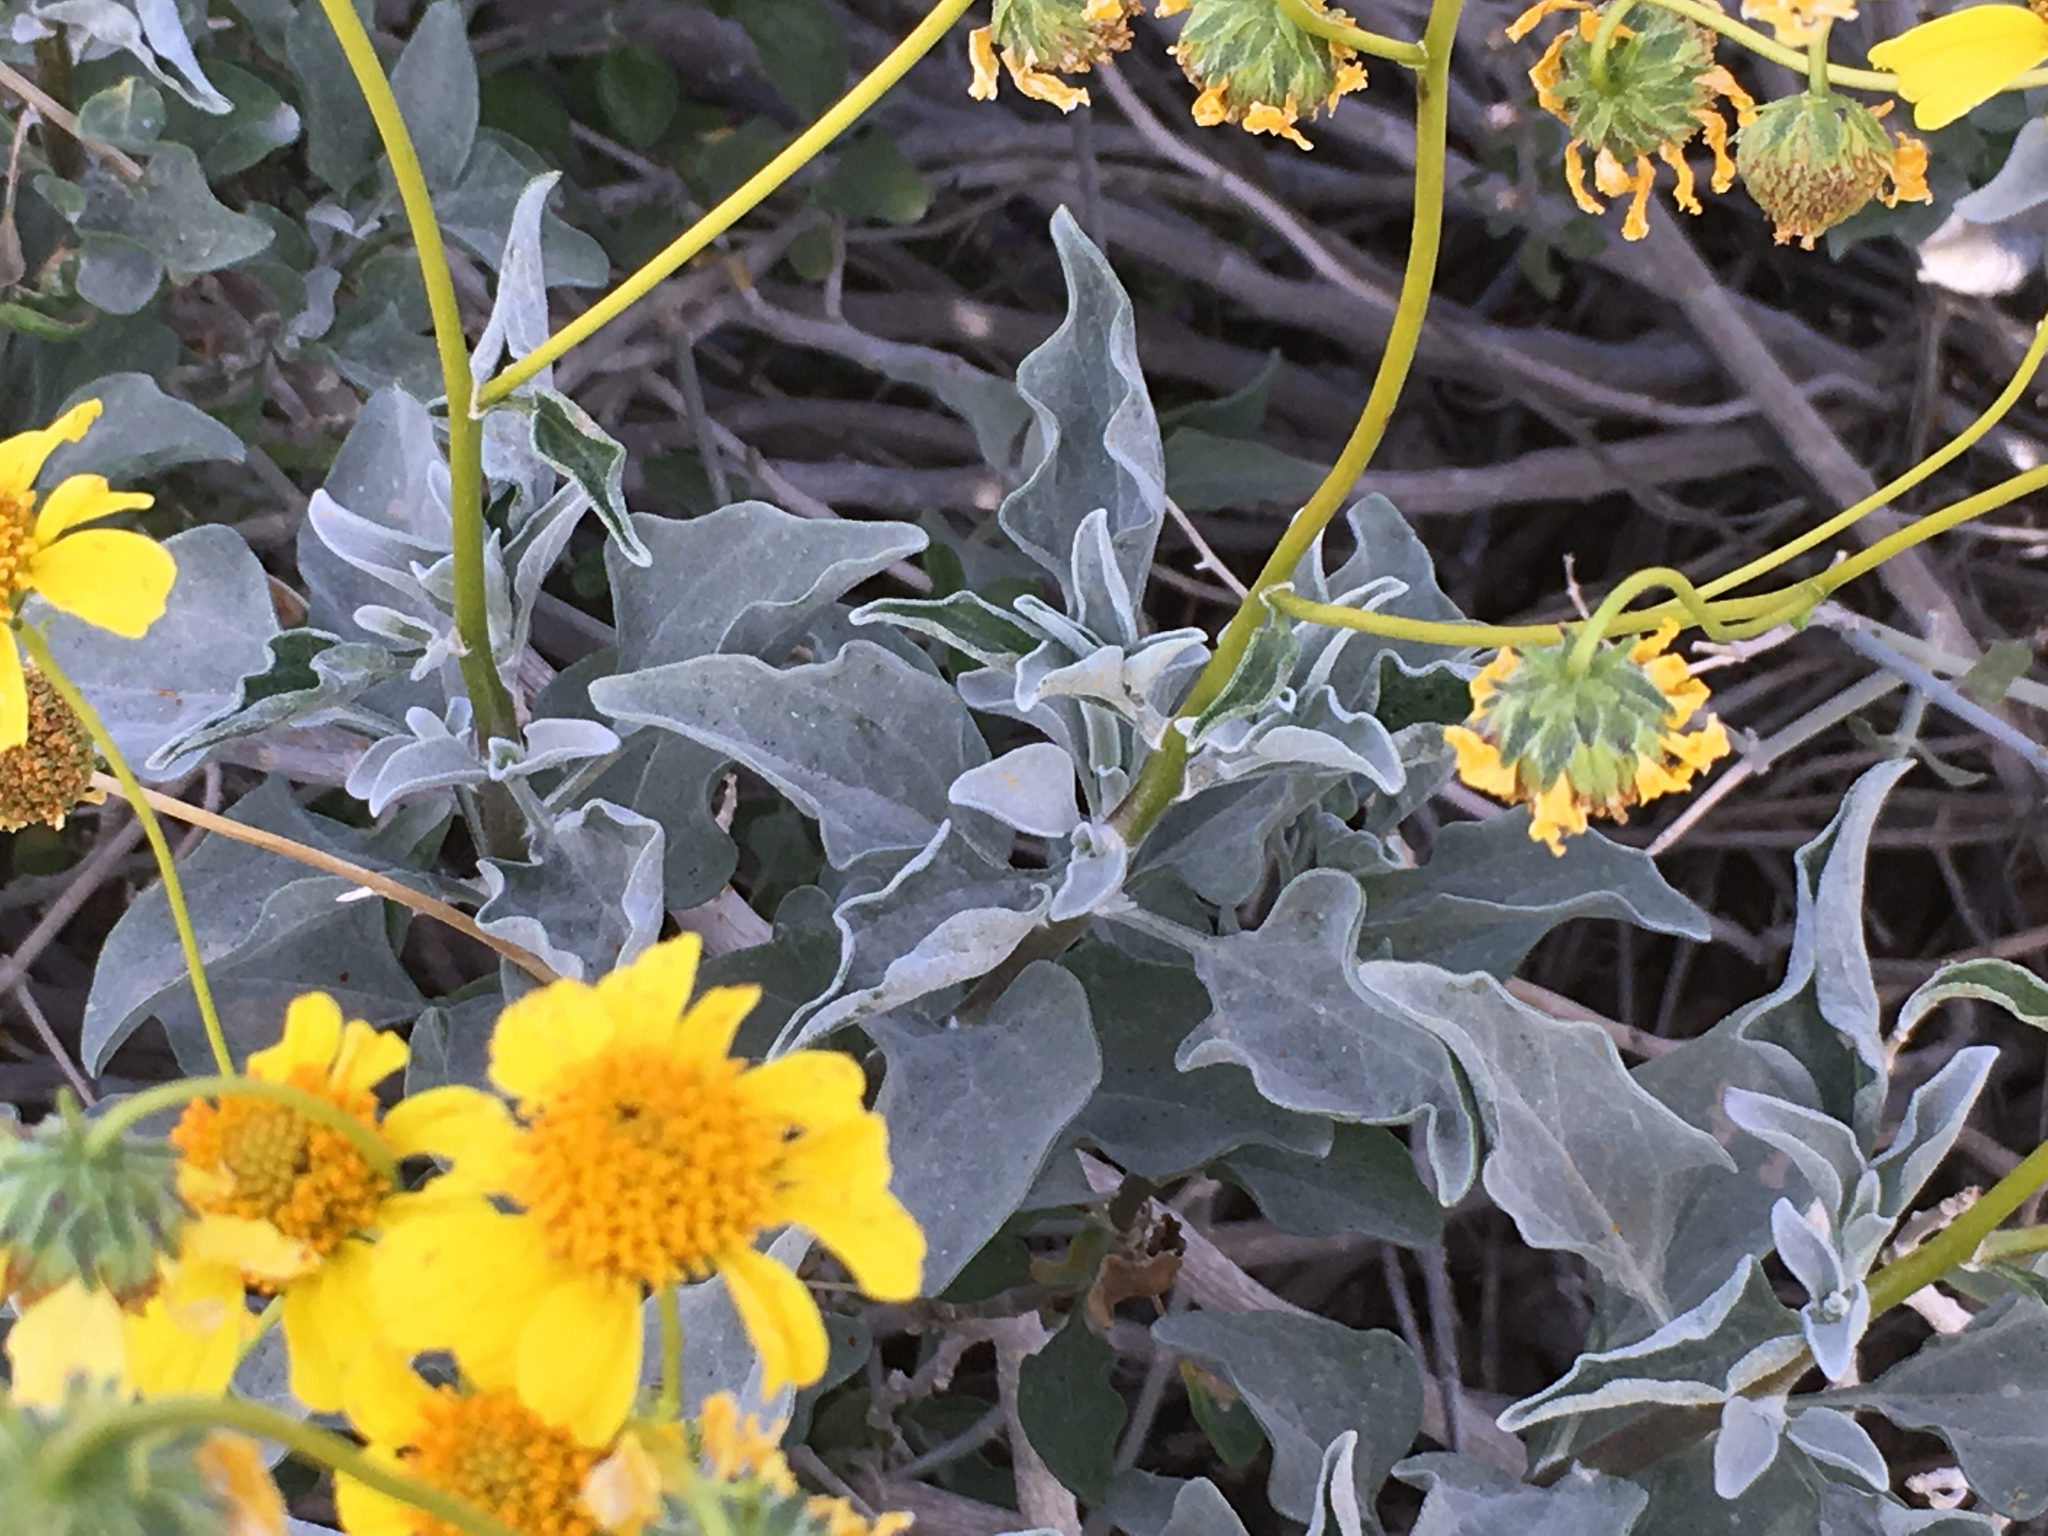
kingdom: Plantae
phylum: Tracheophyta
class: Magnoliopsida
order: Asterales
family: Asteraceae
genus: Encelia
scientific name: Encelia farinosa
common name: Brittlebush
